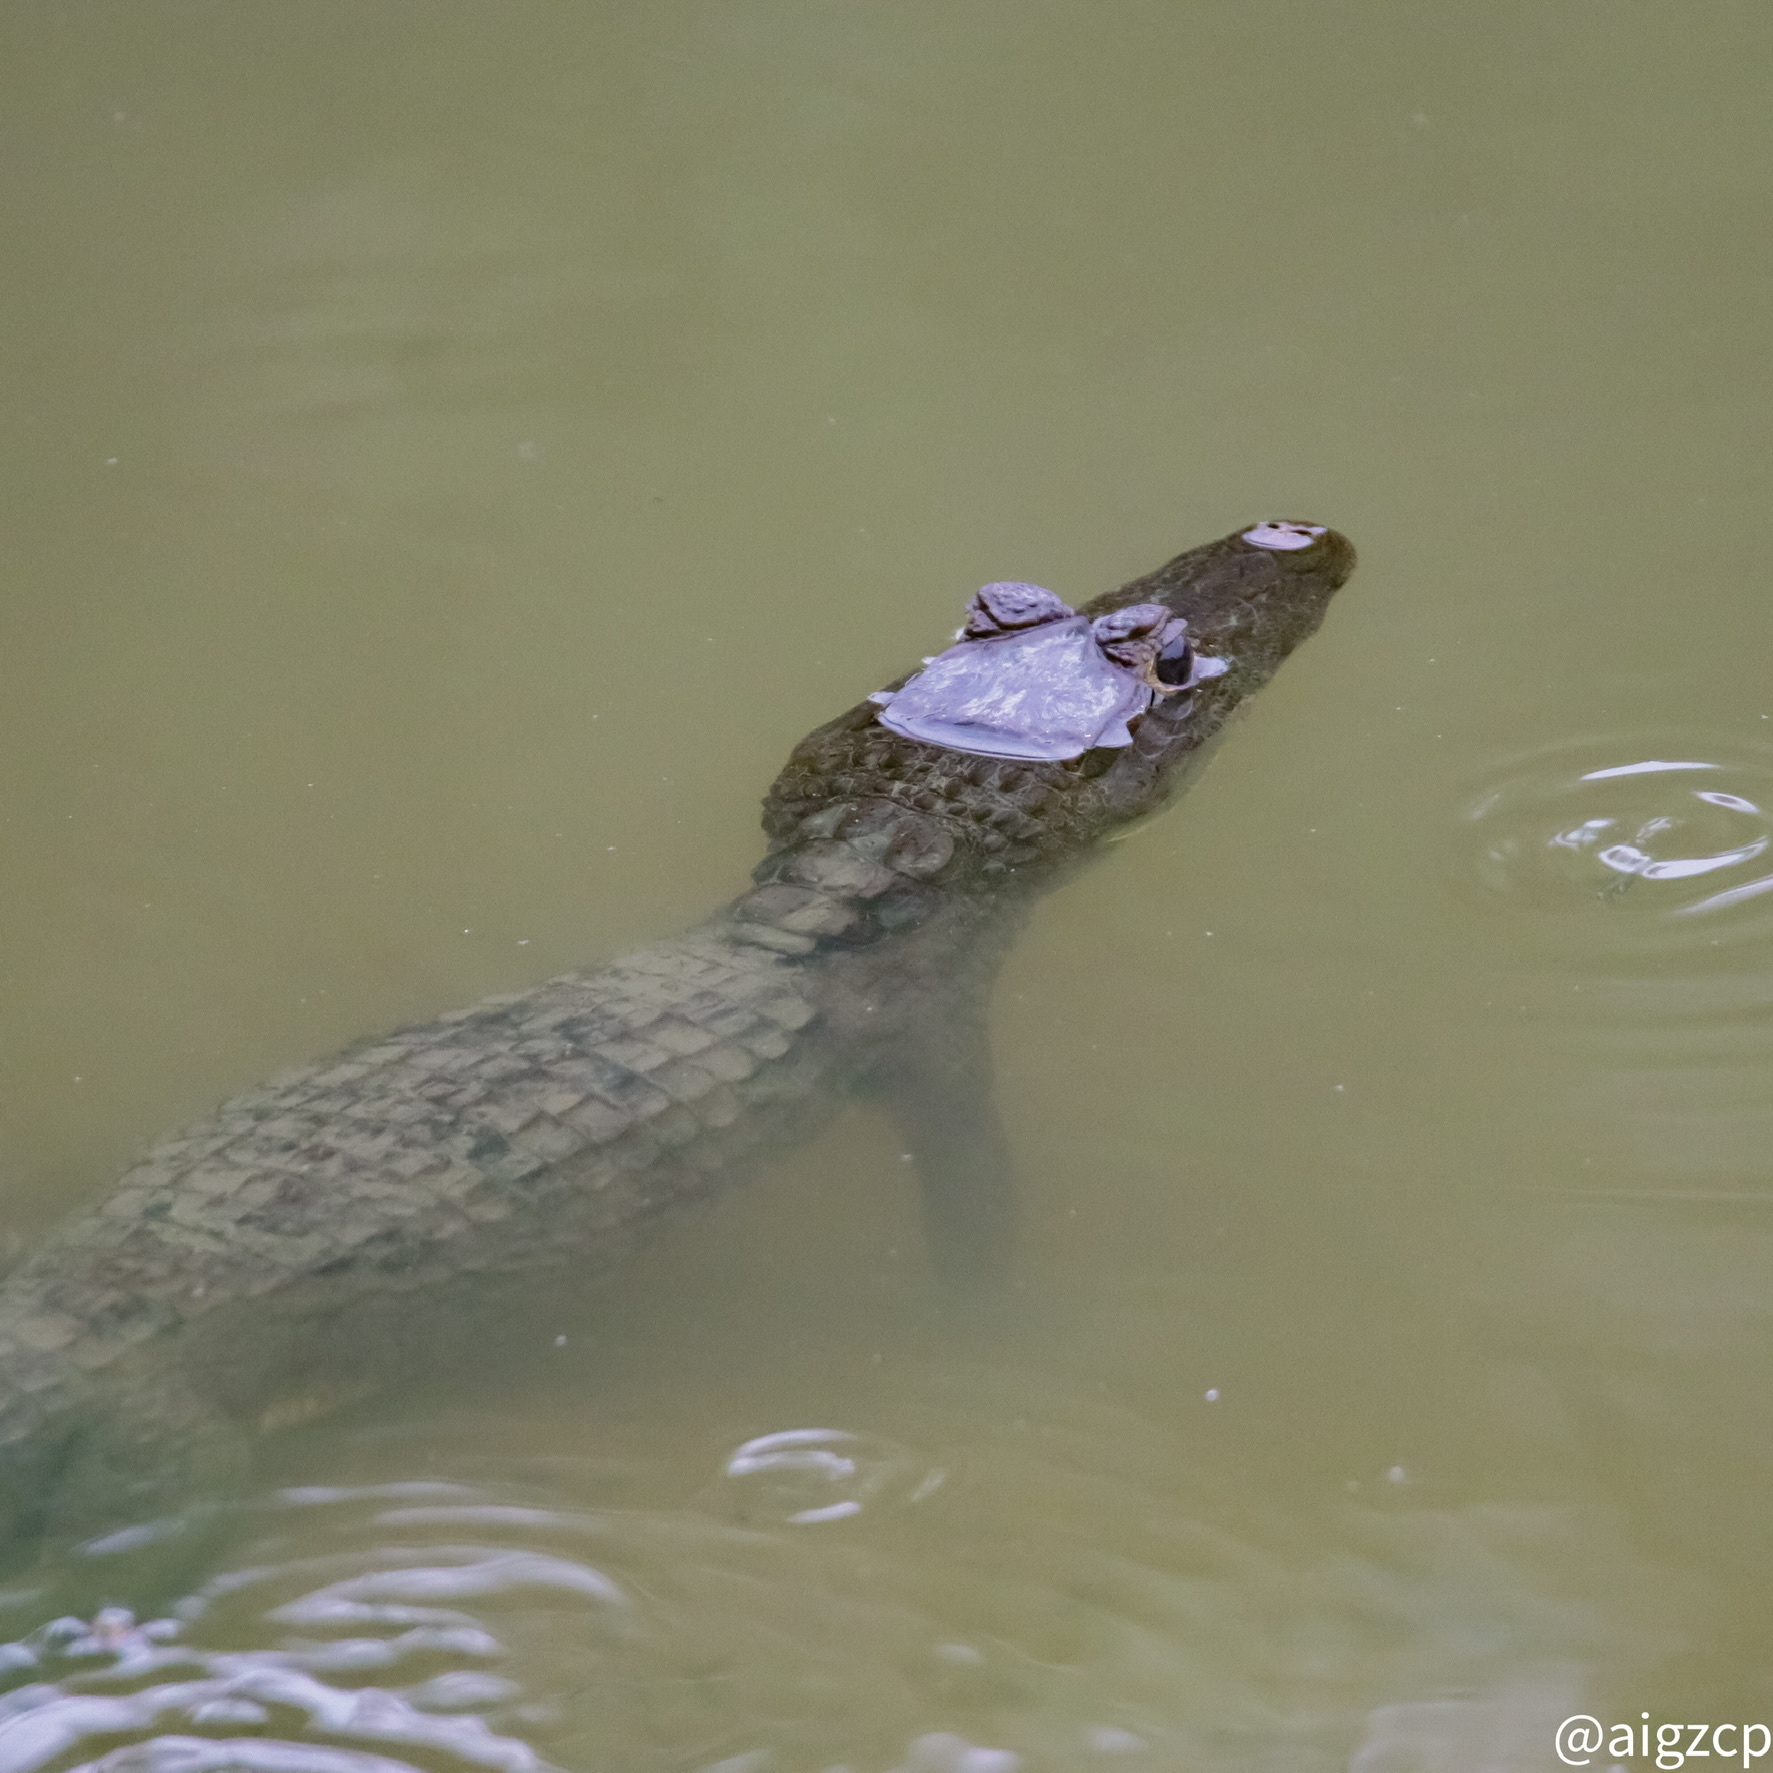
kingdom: Animalia
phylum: Chordata
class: Crocodylia
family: Alligatoridae
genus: Caiman
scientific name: Caiman crocodilus
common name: Common caiman
